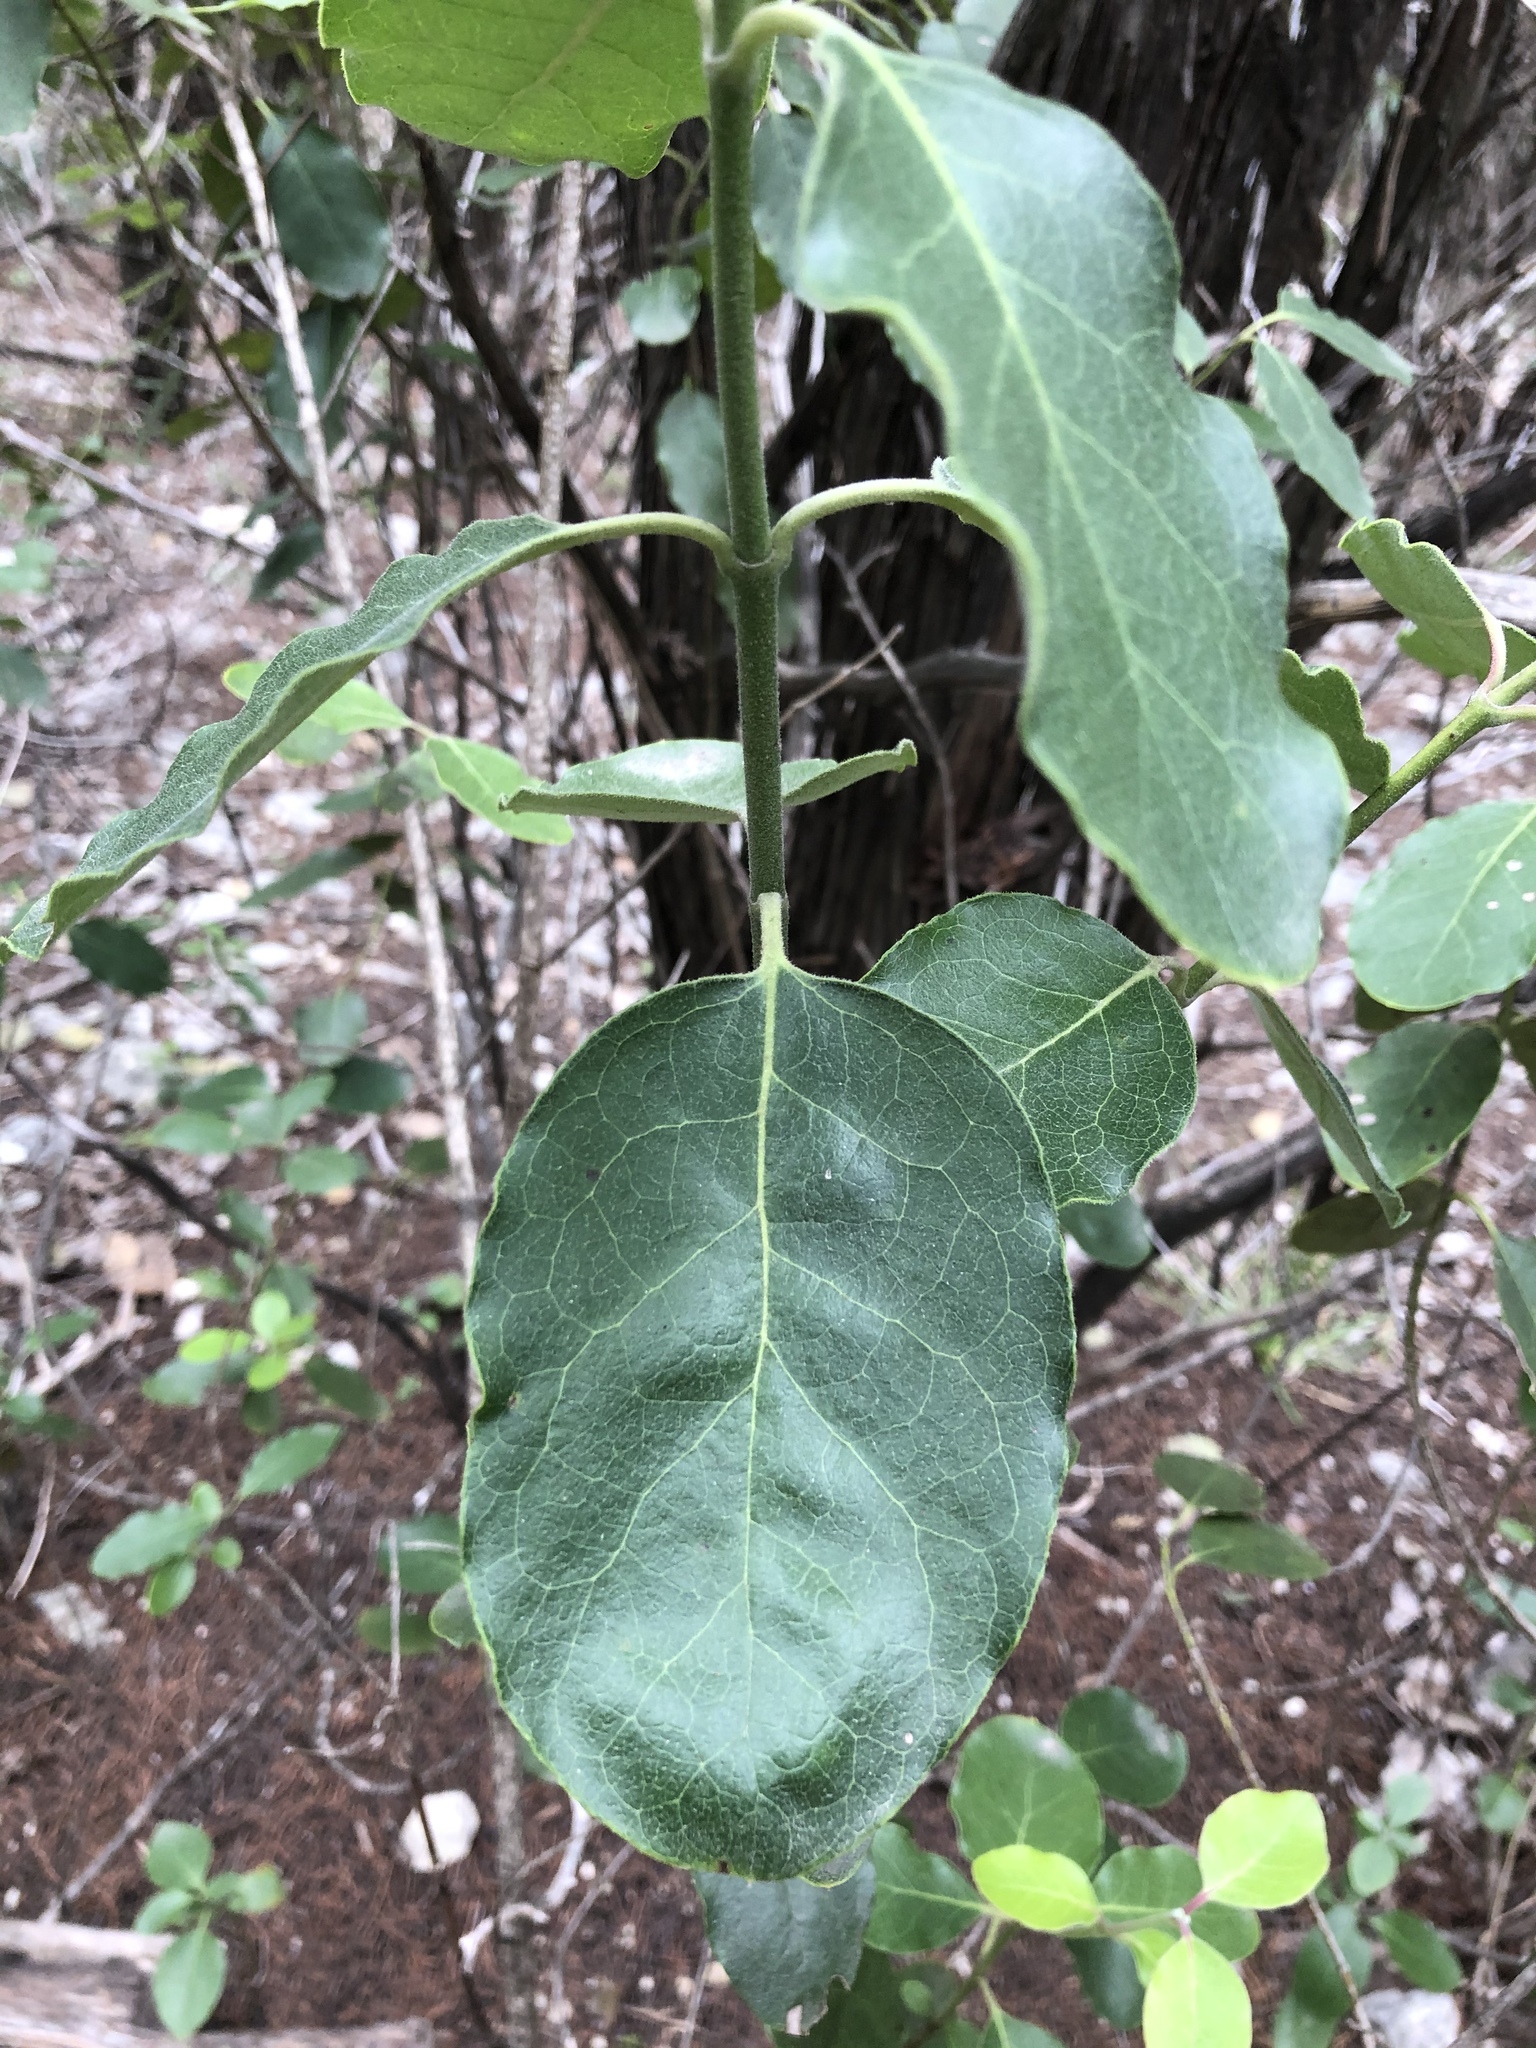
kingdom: Plantae
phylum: Tracheophyta
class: Magnoliopsida
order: Garryales
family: Garryaceae
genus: Garrya
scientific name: Garrya lindheimeri
